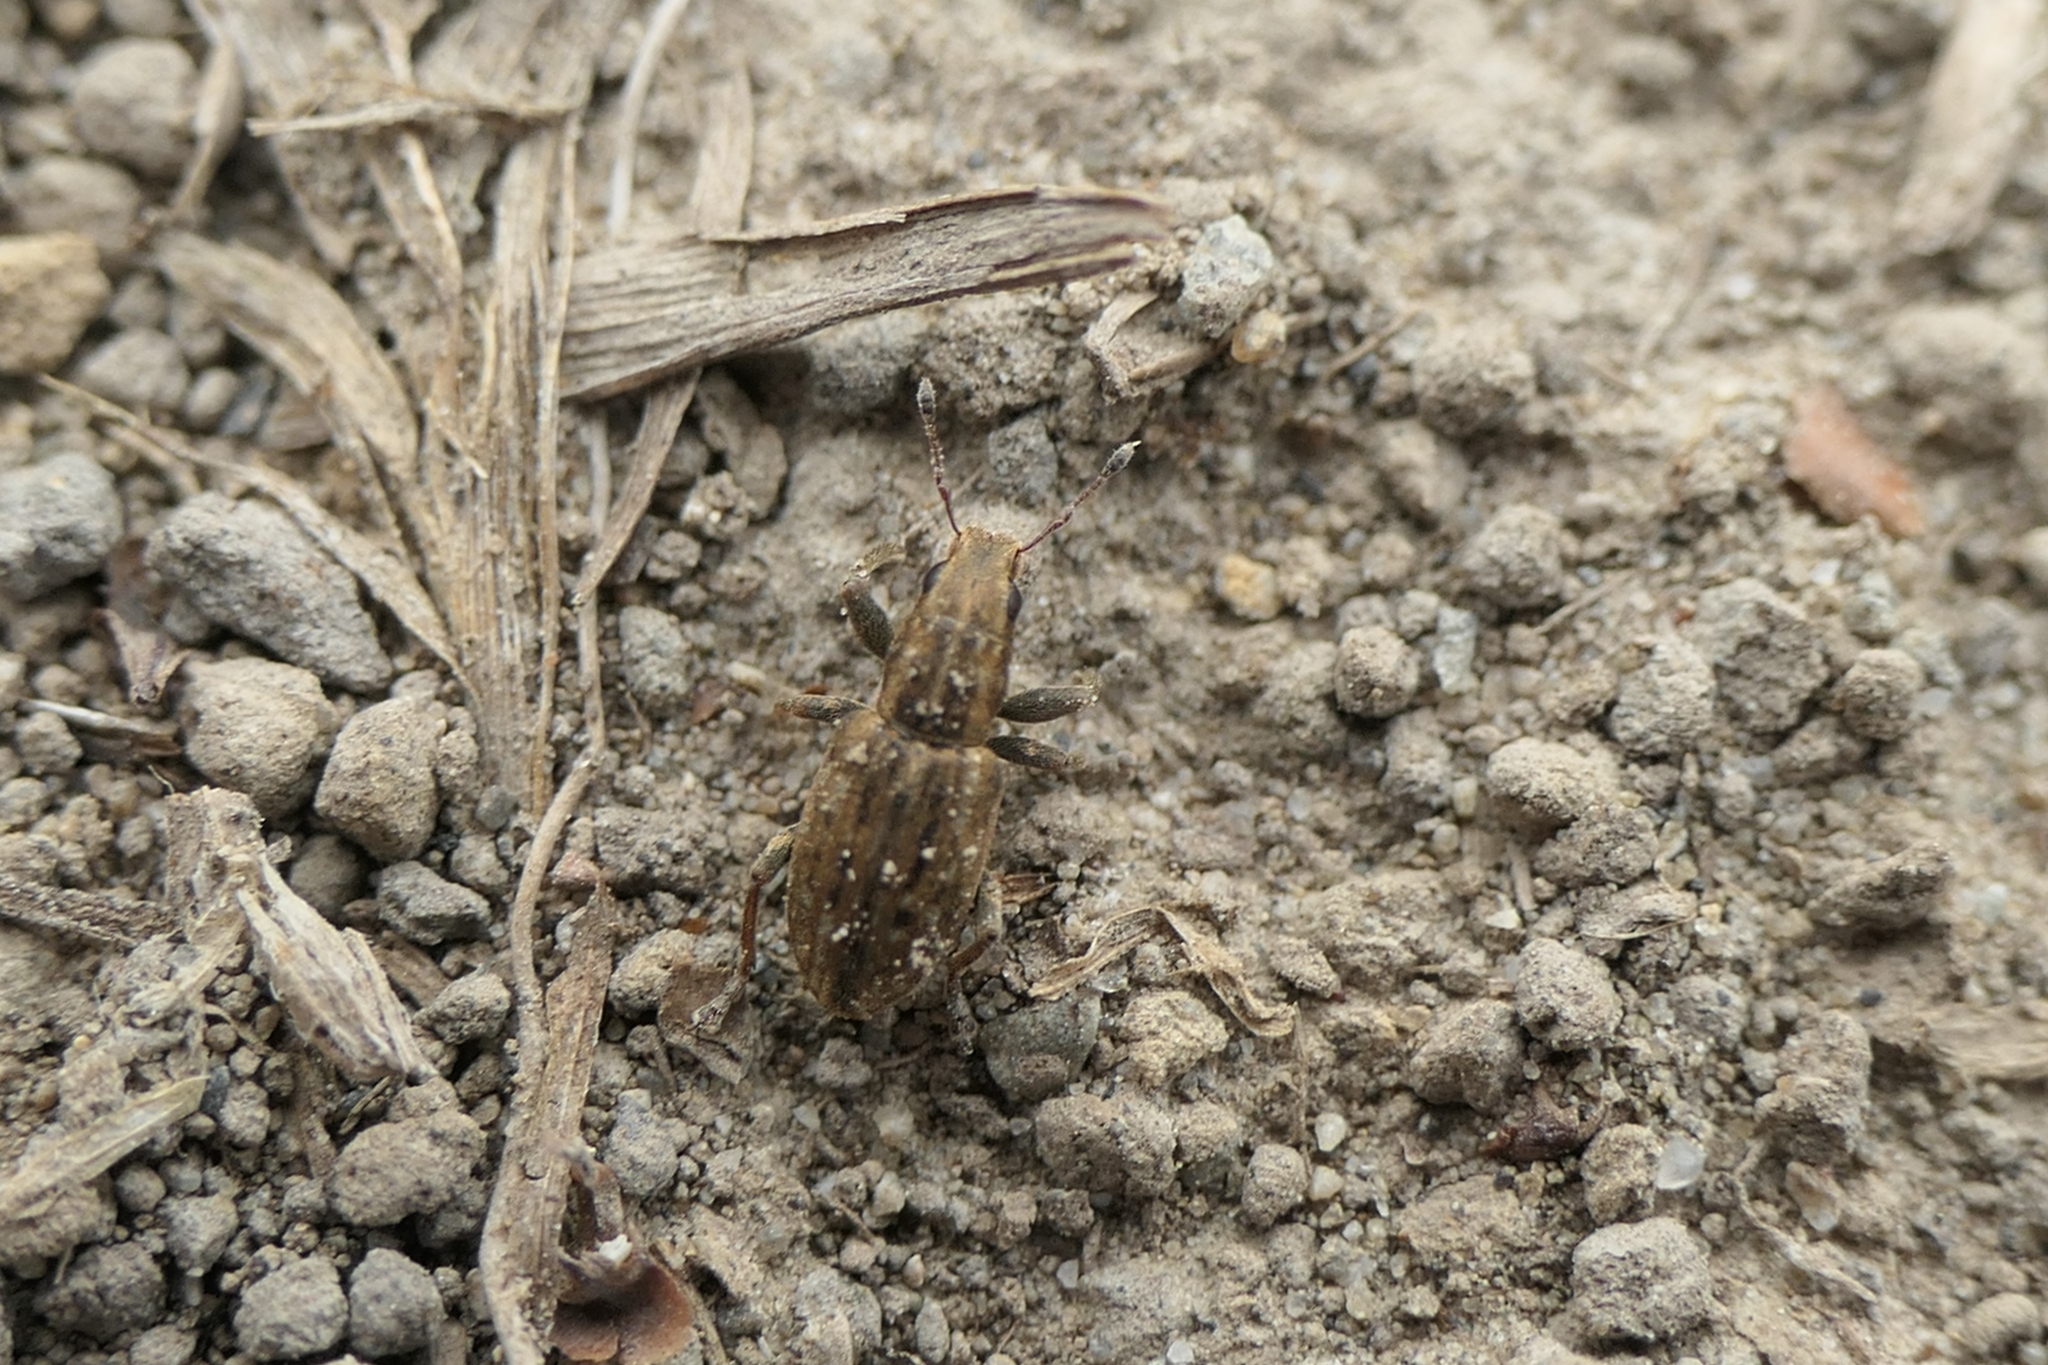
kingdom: Animalia
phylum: Arthropoda
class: Insecta
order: Coleoptera
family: Curculionidae
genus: Sitona
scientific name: Sitona obsoletus
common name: Weevil
